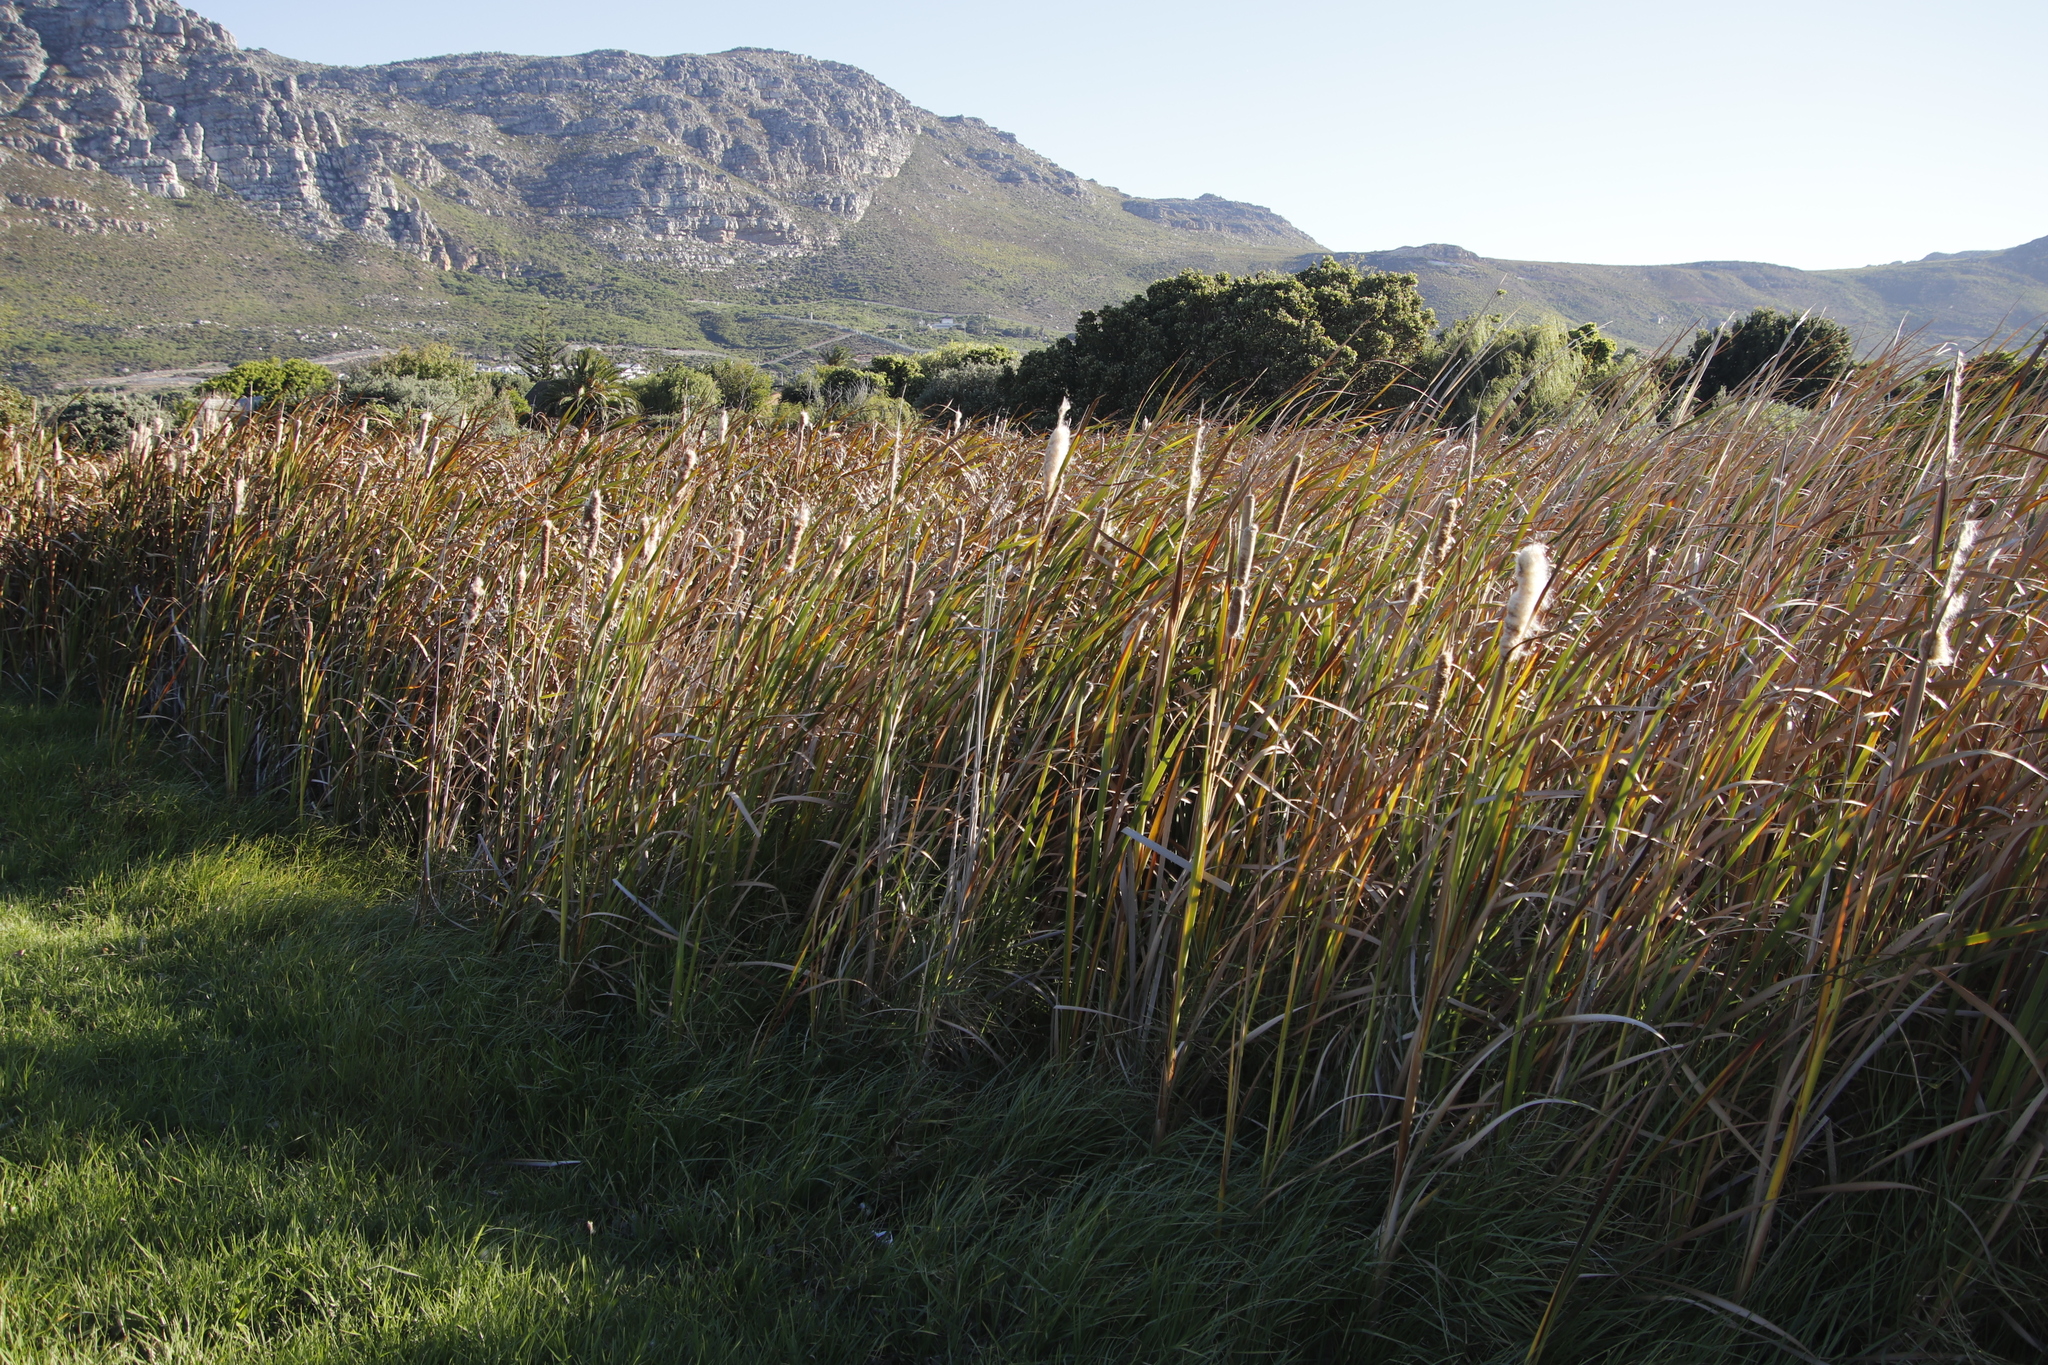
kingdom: Plantae
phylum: Tracheophyta
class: Liliopsida
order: Poales
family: Typhaceae
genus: Typha
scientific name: Typha capensis
